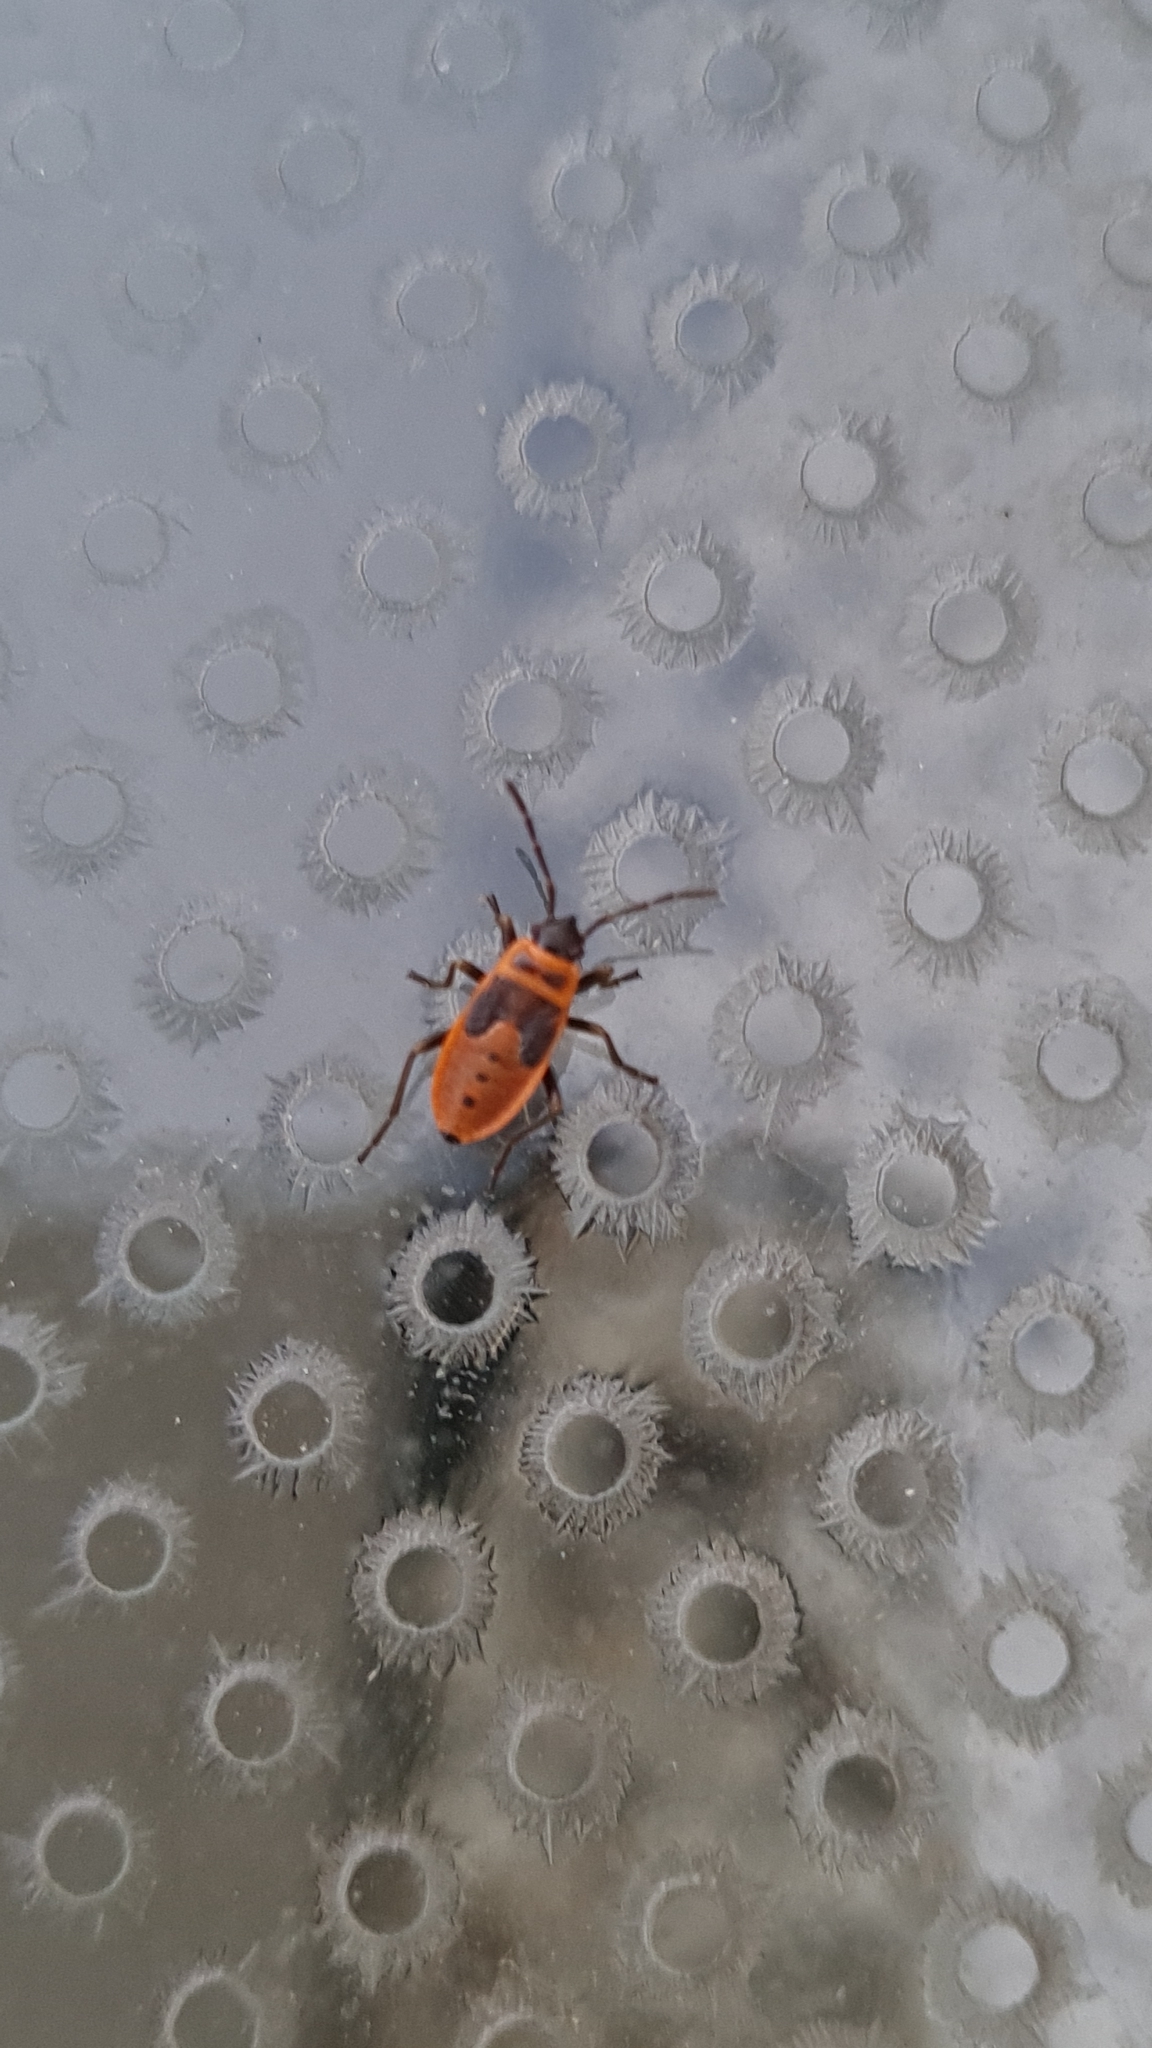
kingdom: Animalia
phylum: Arthropoda
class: Insecta
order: Hemiptera
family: Pyrrhocoridae
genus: Pyrrhocoris
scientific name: Pyrrhocoris apterus
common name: Firebug
